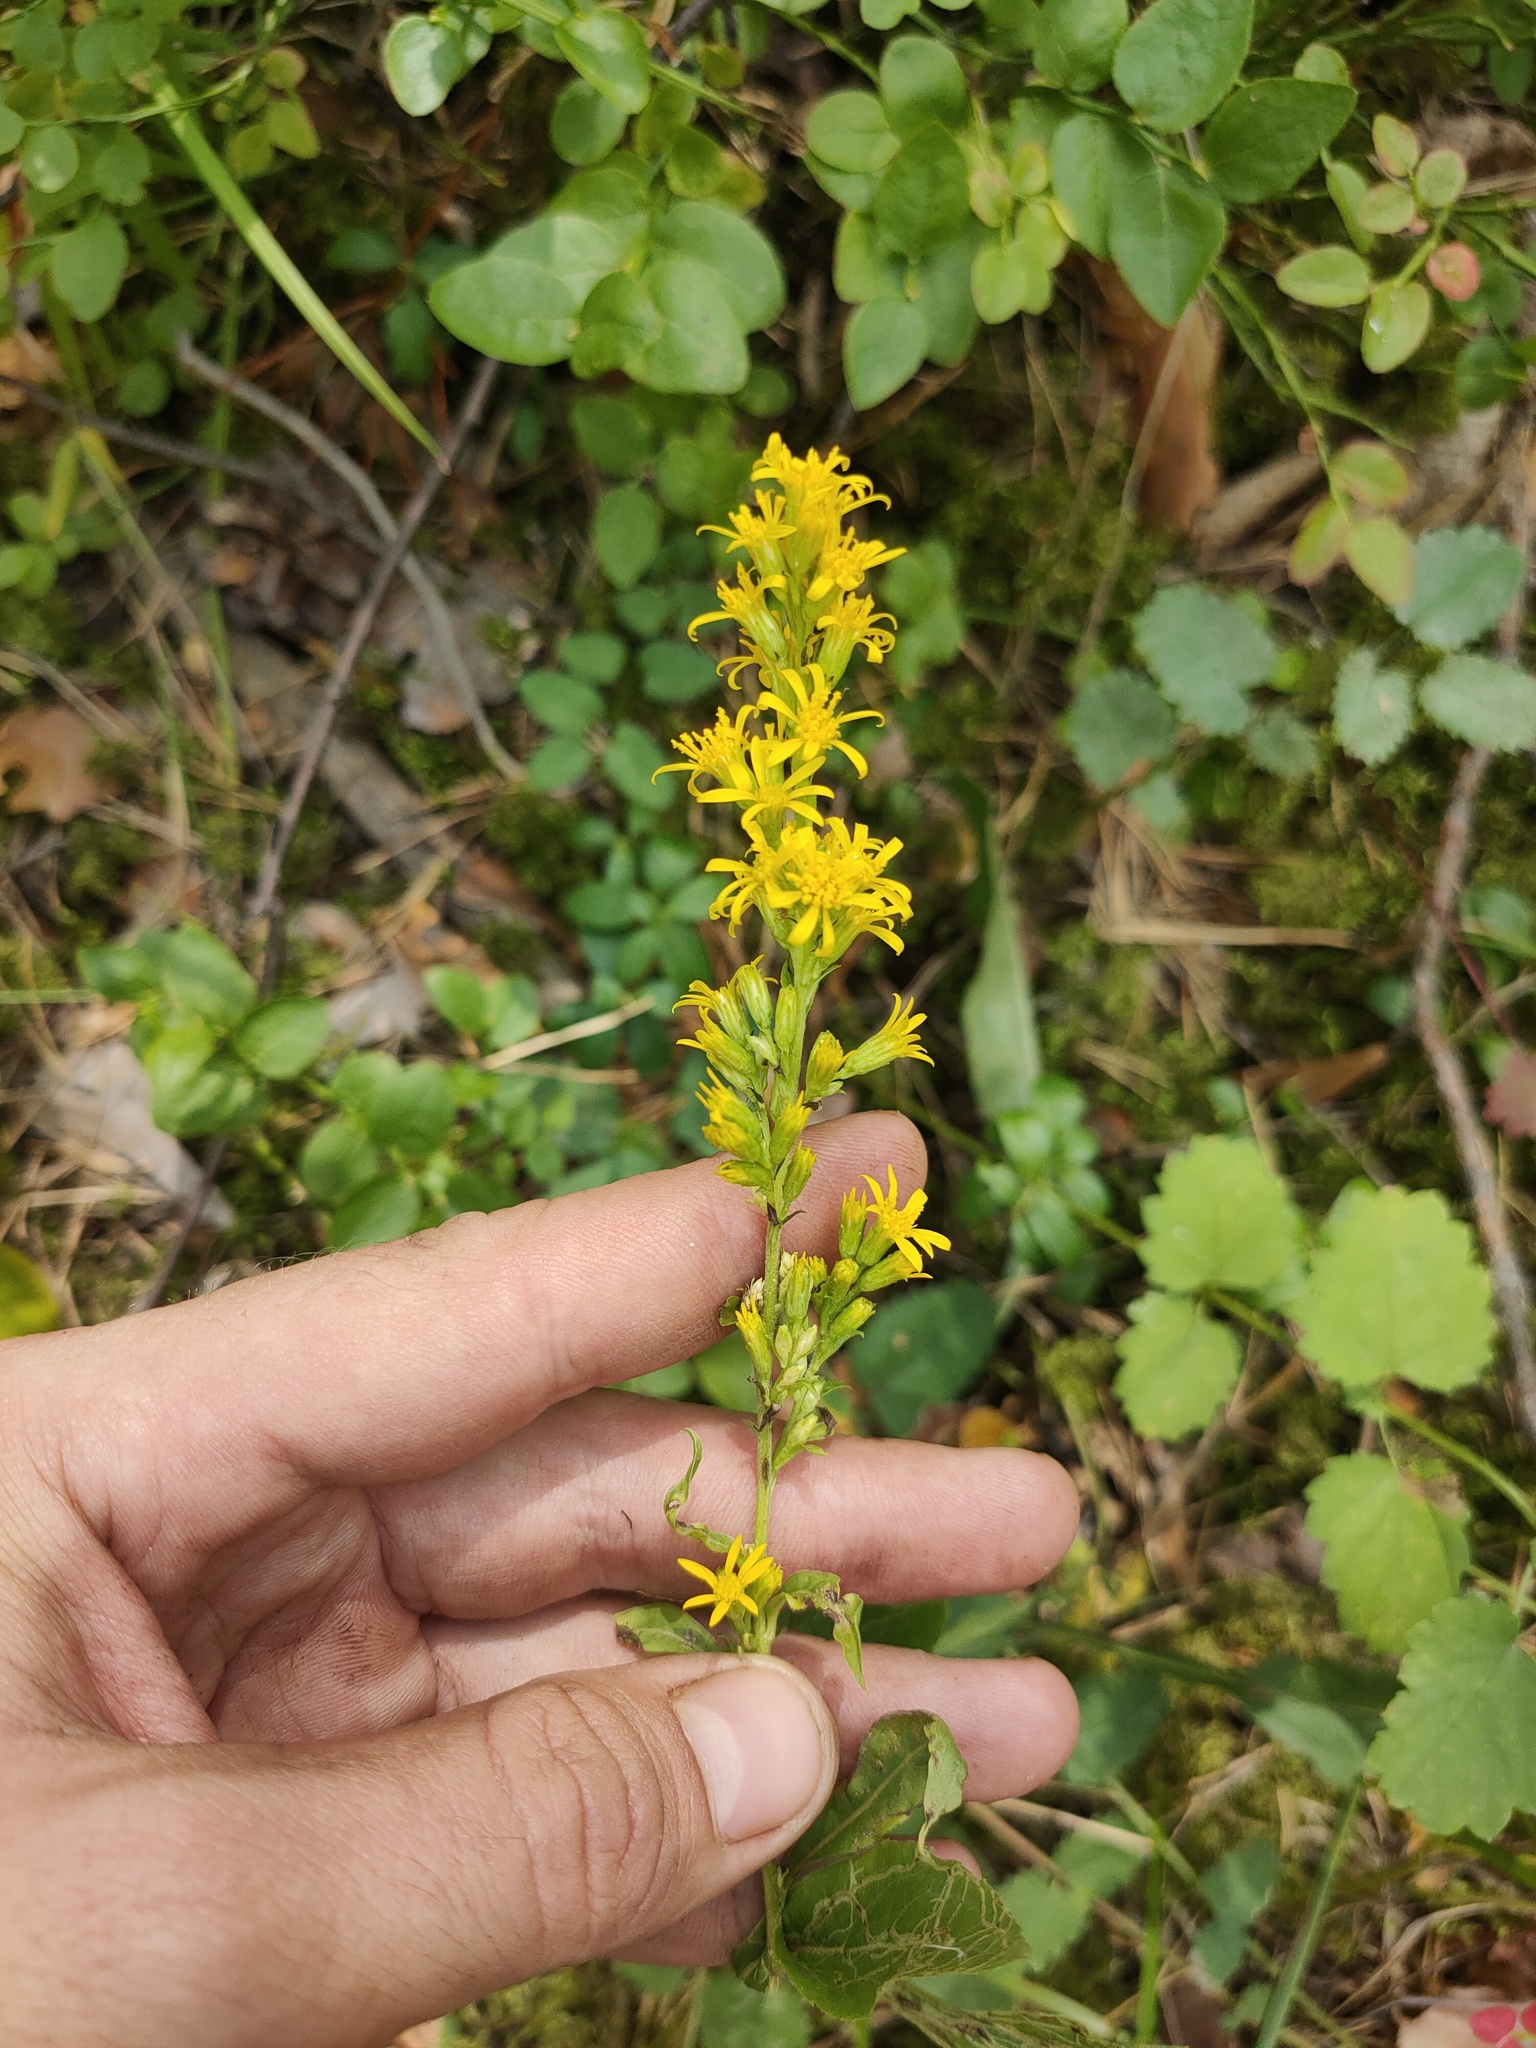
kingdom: Plantae
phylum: Tracheophyta
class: Magnoliopsida
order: Asterales
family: Asteraceae
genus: Solidago
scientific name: Solidago virgaurea
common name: Goldenrod
